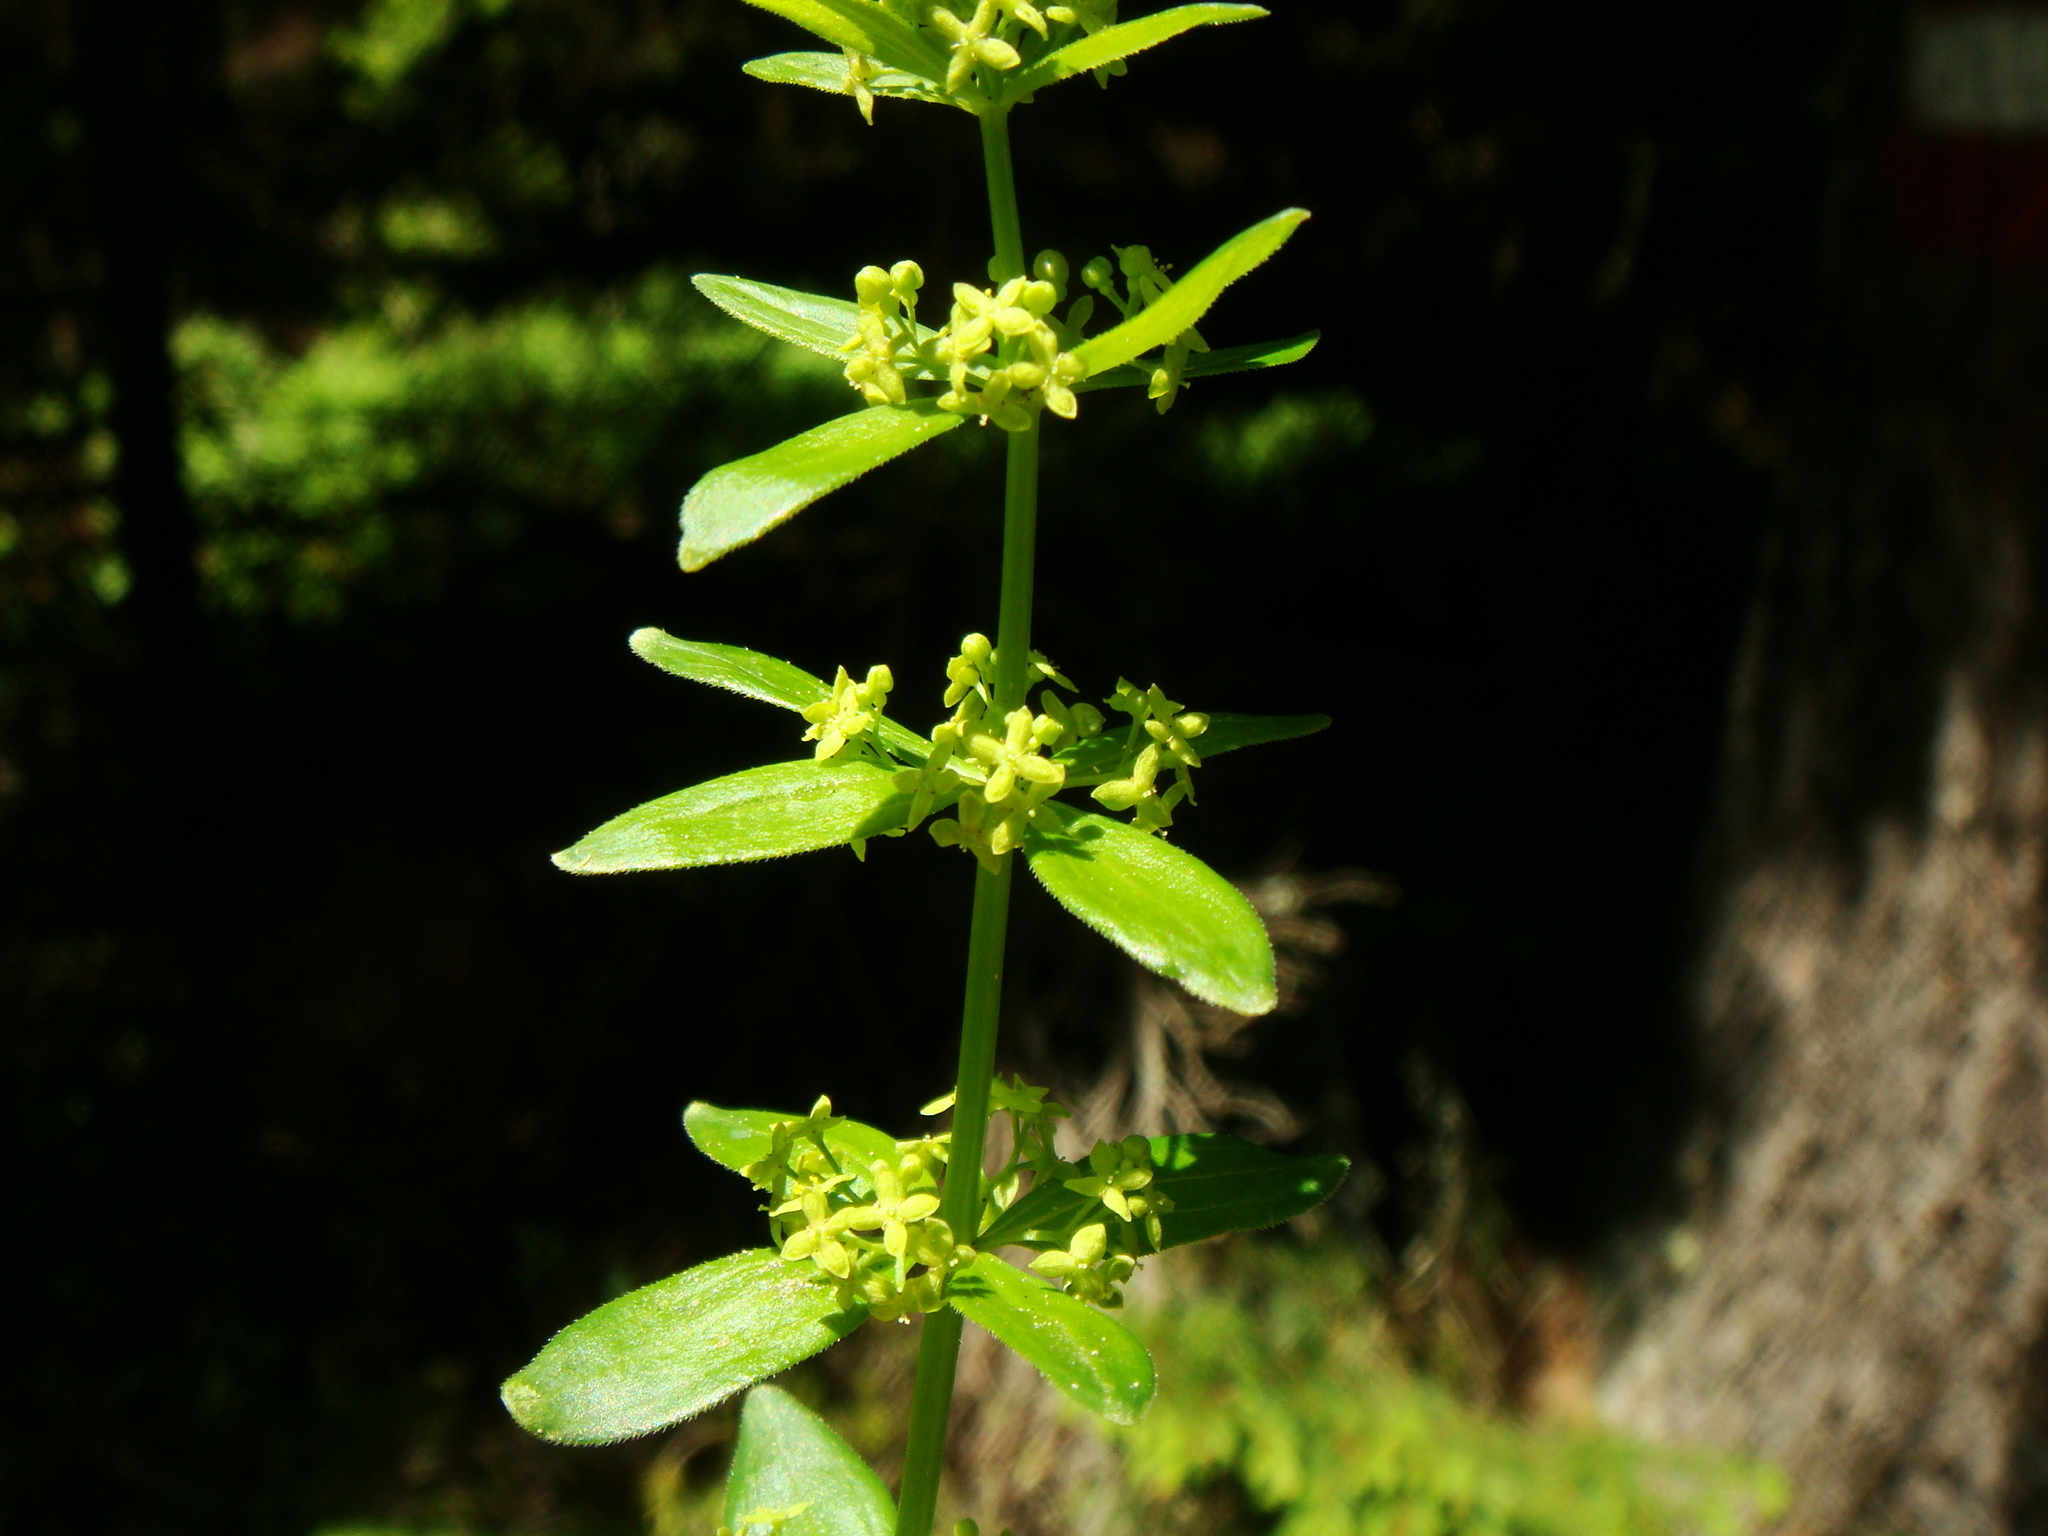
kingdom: Plantae
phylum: Tracheophyta
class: Magnoliopsida
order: Gentianales
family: Rubiaceae
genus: Cruciata
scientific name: Cruciata glabra
